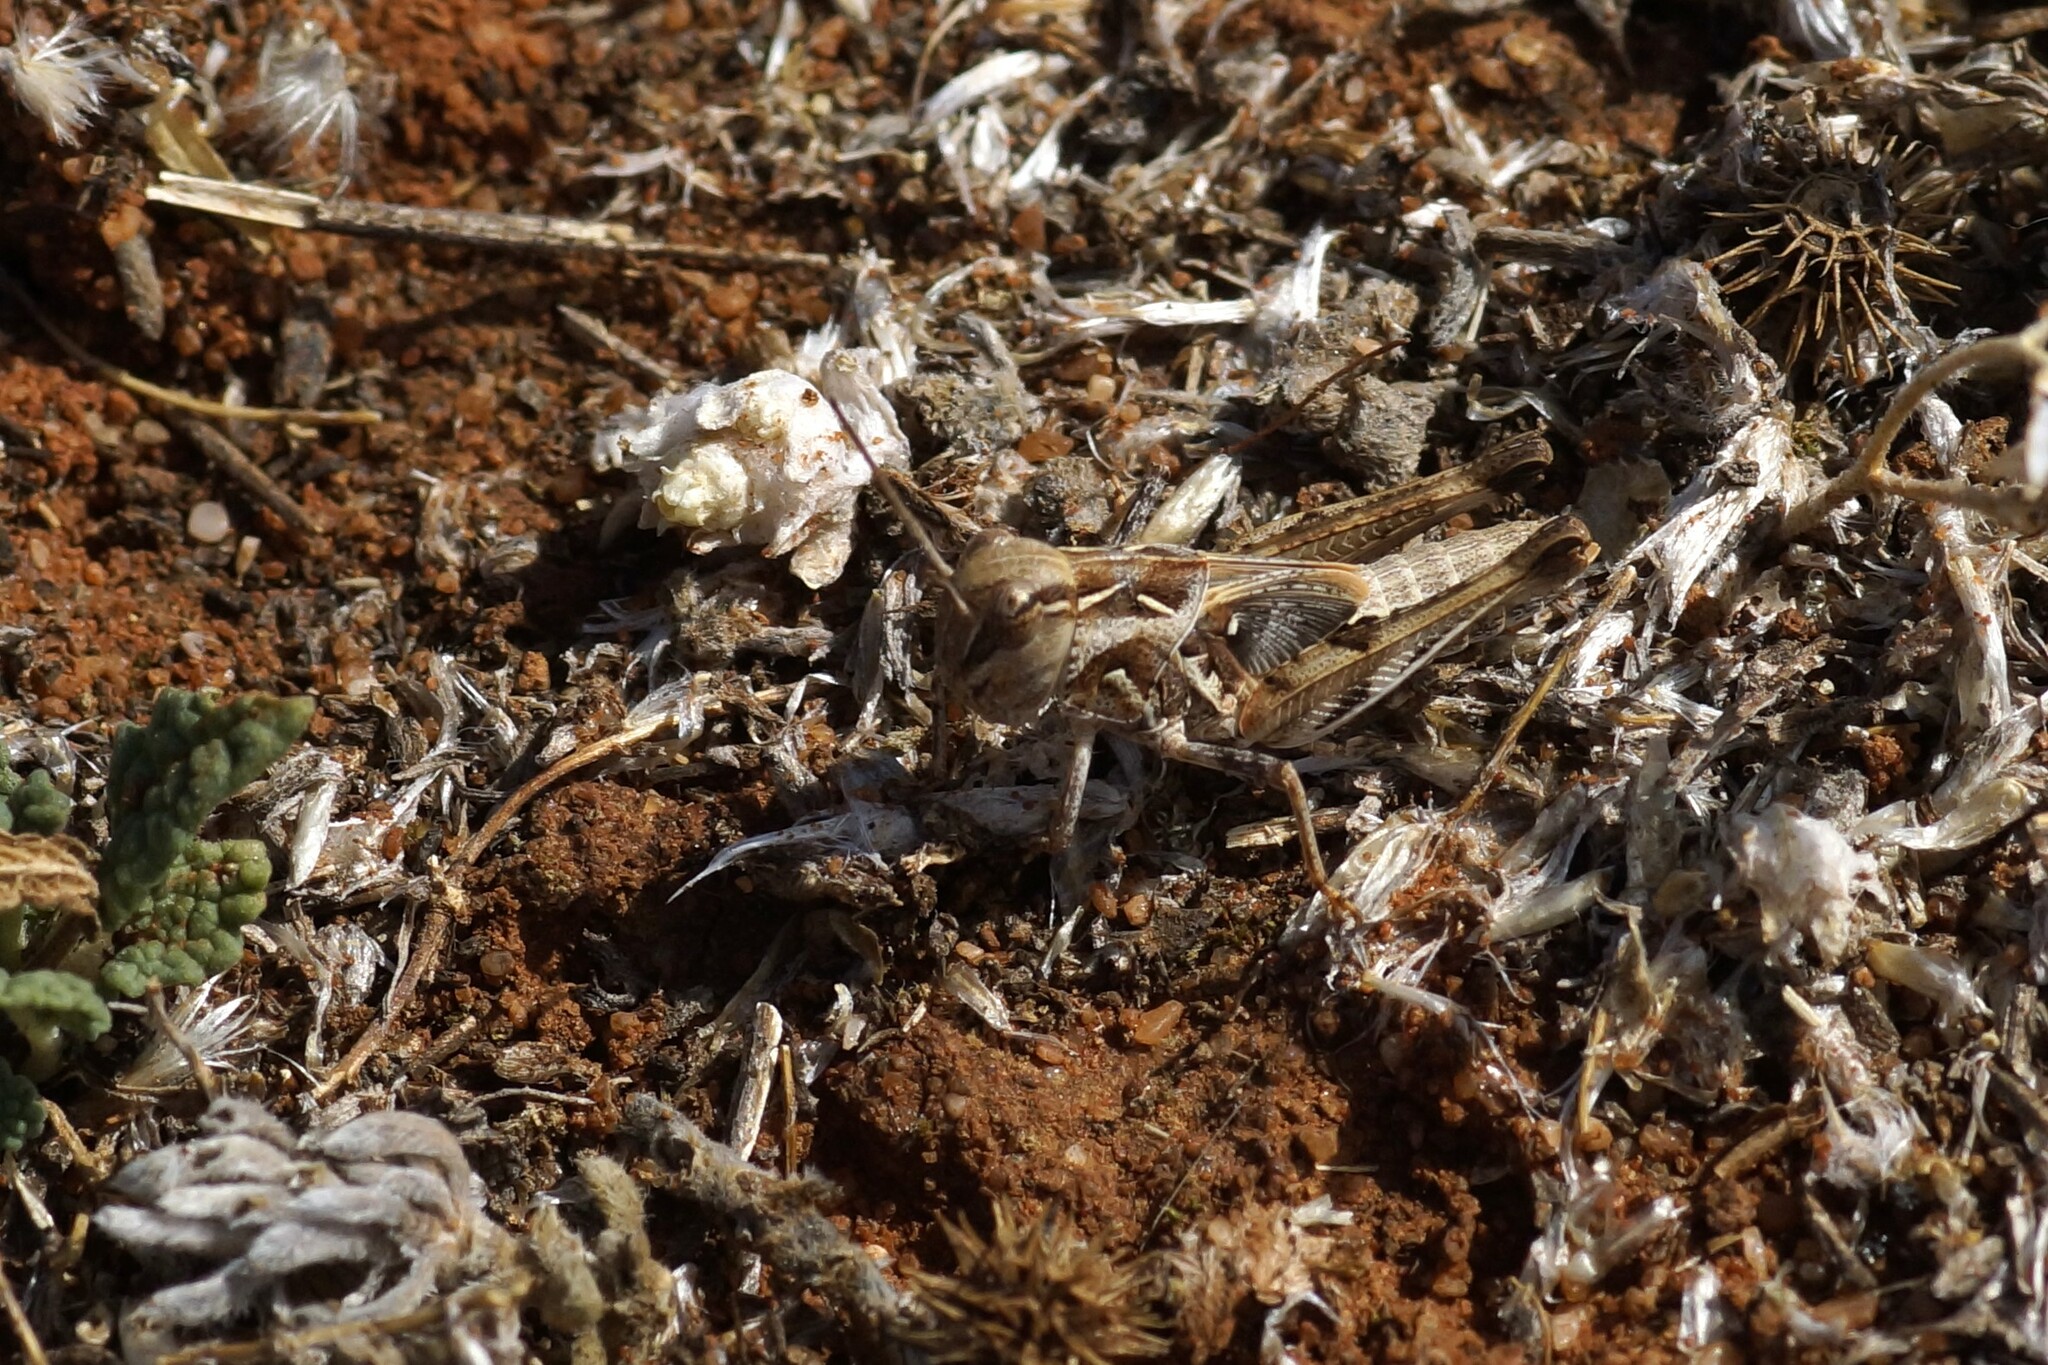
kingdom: Animalia
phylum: Arthropoda
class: Insecta
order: Orthoptera
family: Acrididae
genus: Oedaleus
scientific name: Oedaleus australis
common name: Eastern oedaleus
